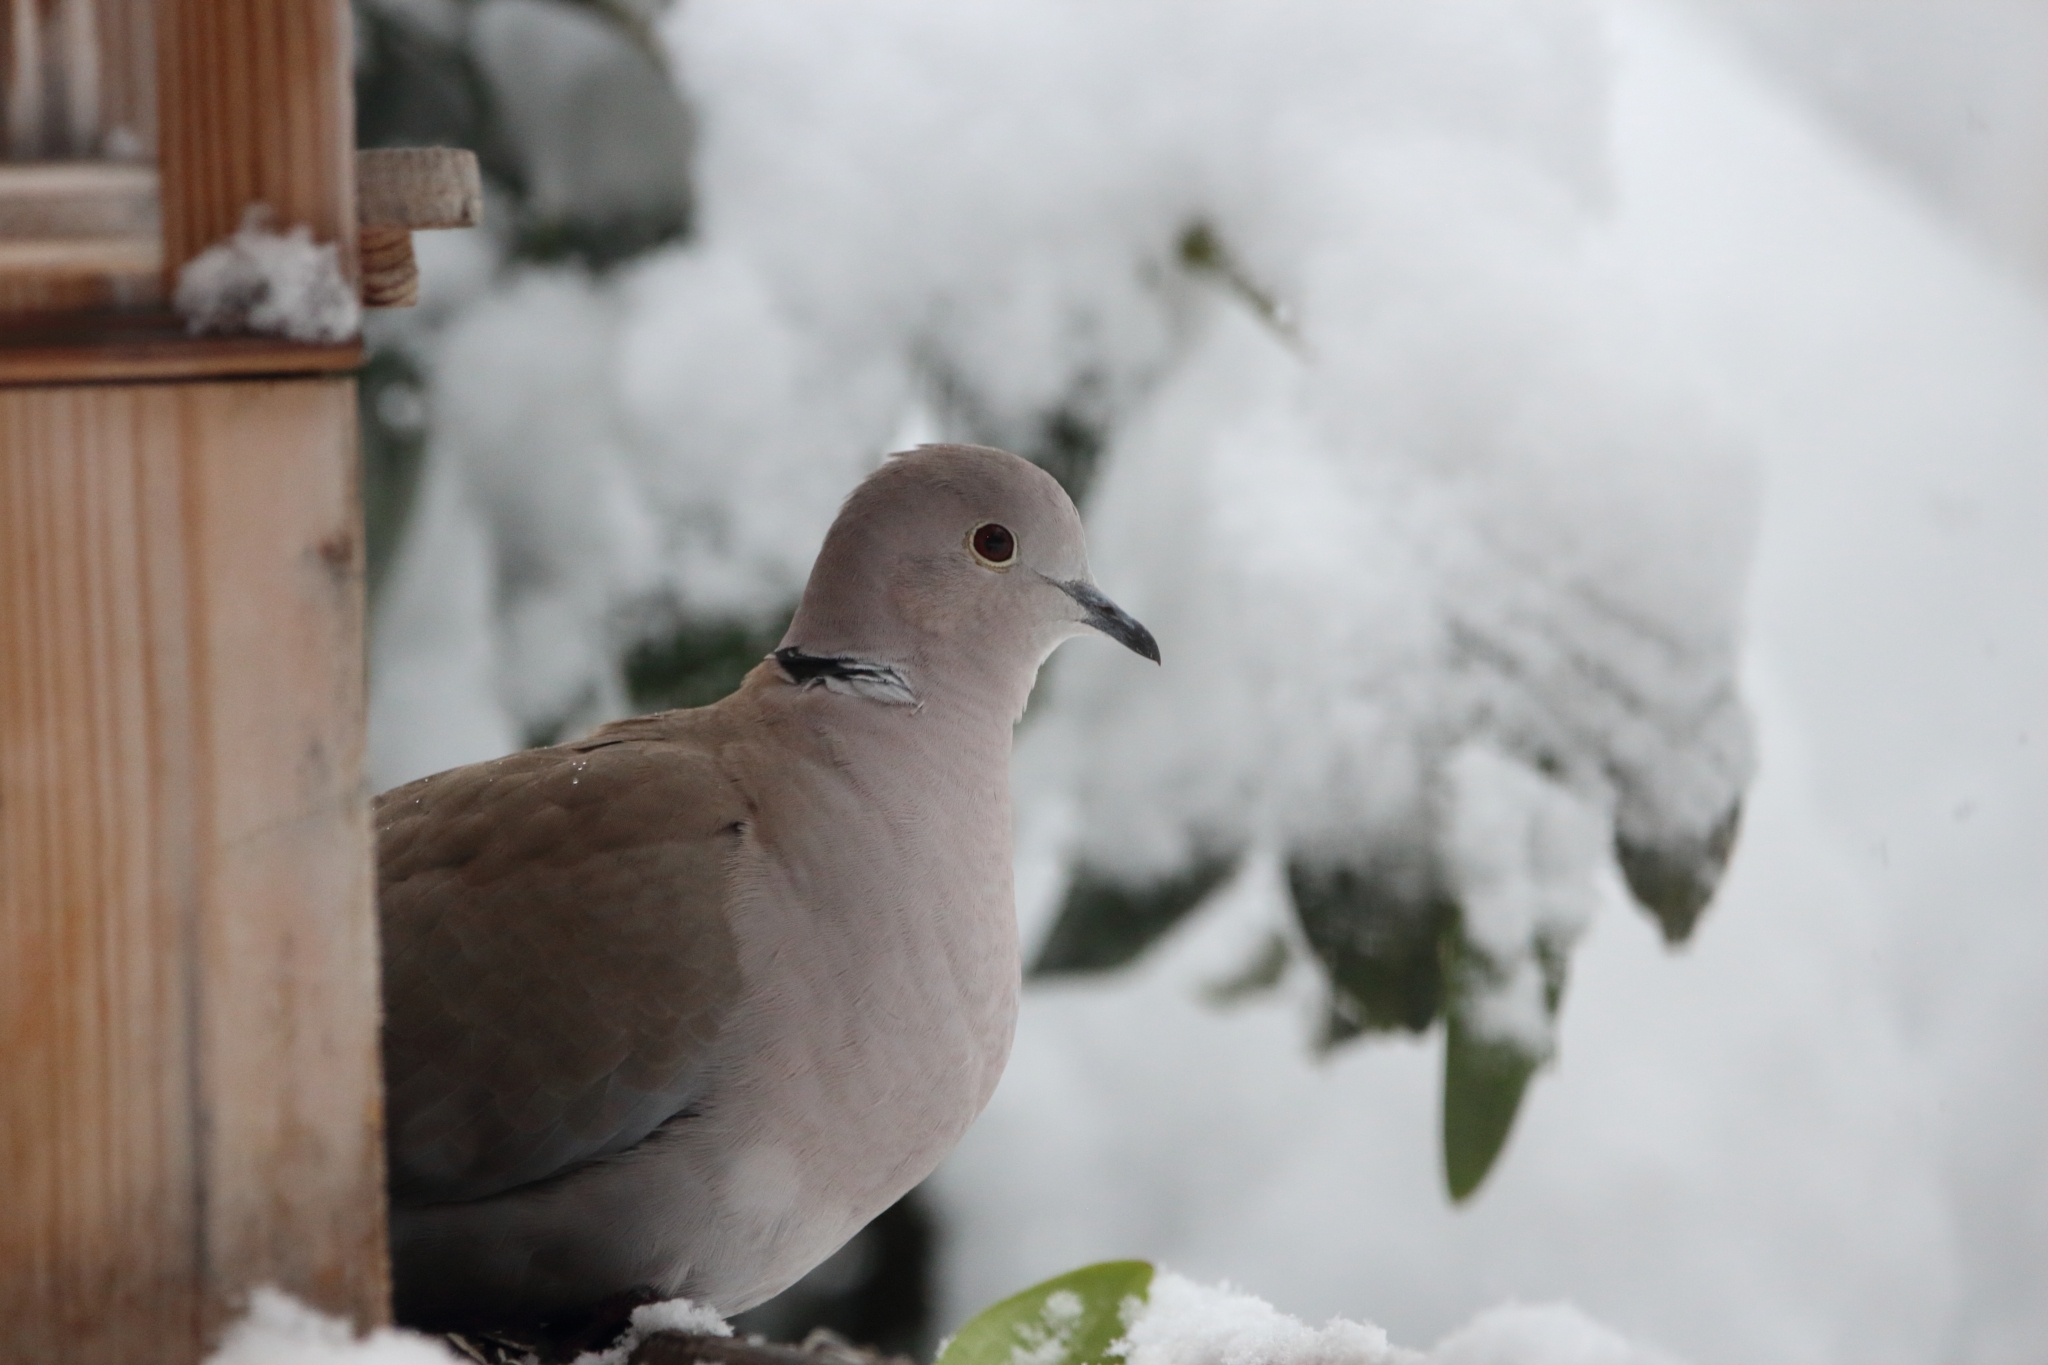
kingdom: Animalia
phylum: Chordata
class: Aves
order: Columbiformes
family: Columbidae
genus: Streptopelia
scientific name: Streptopelia decaocto
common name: Eurasian collared dove
